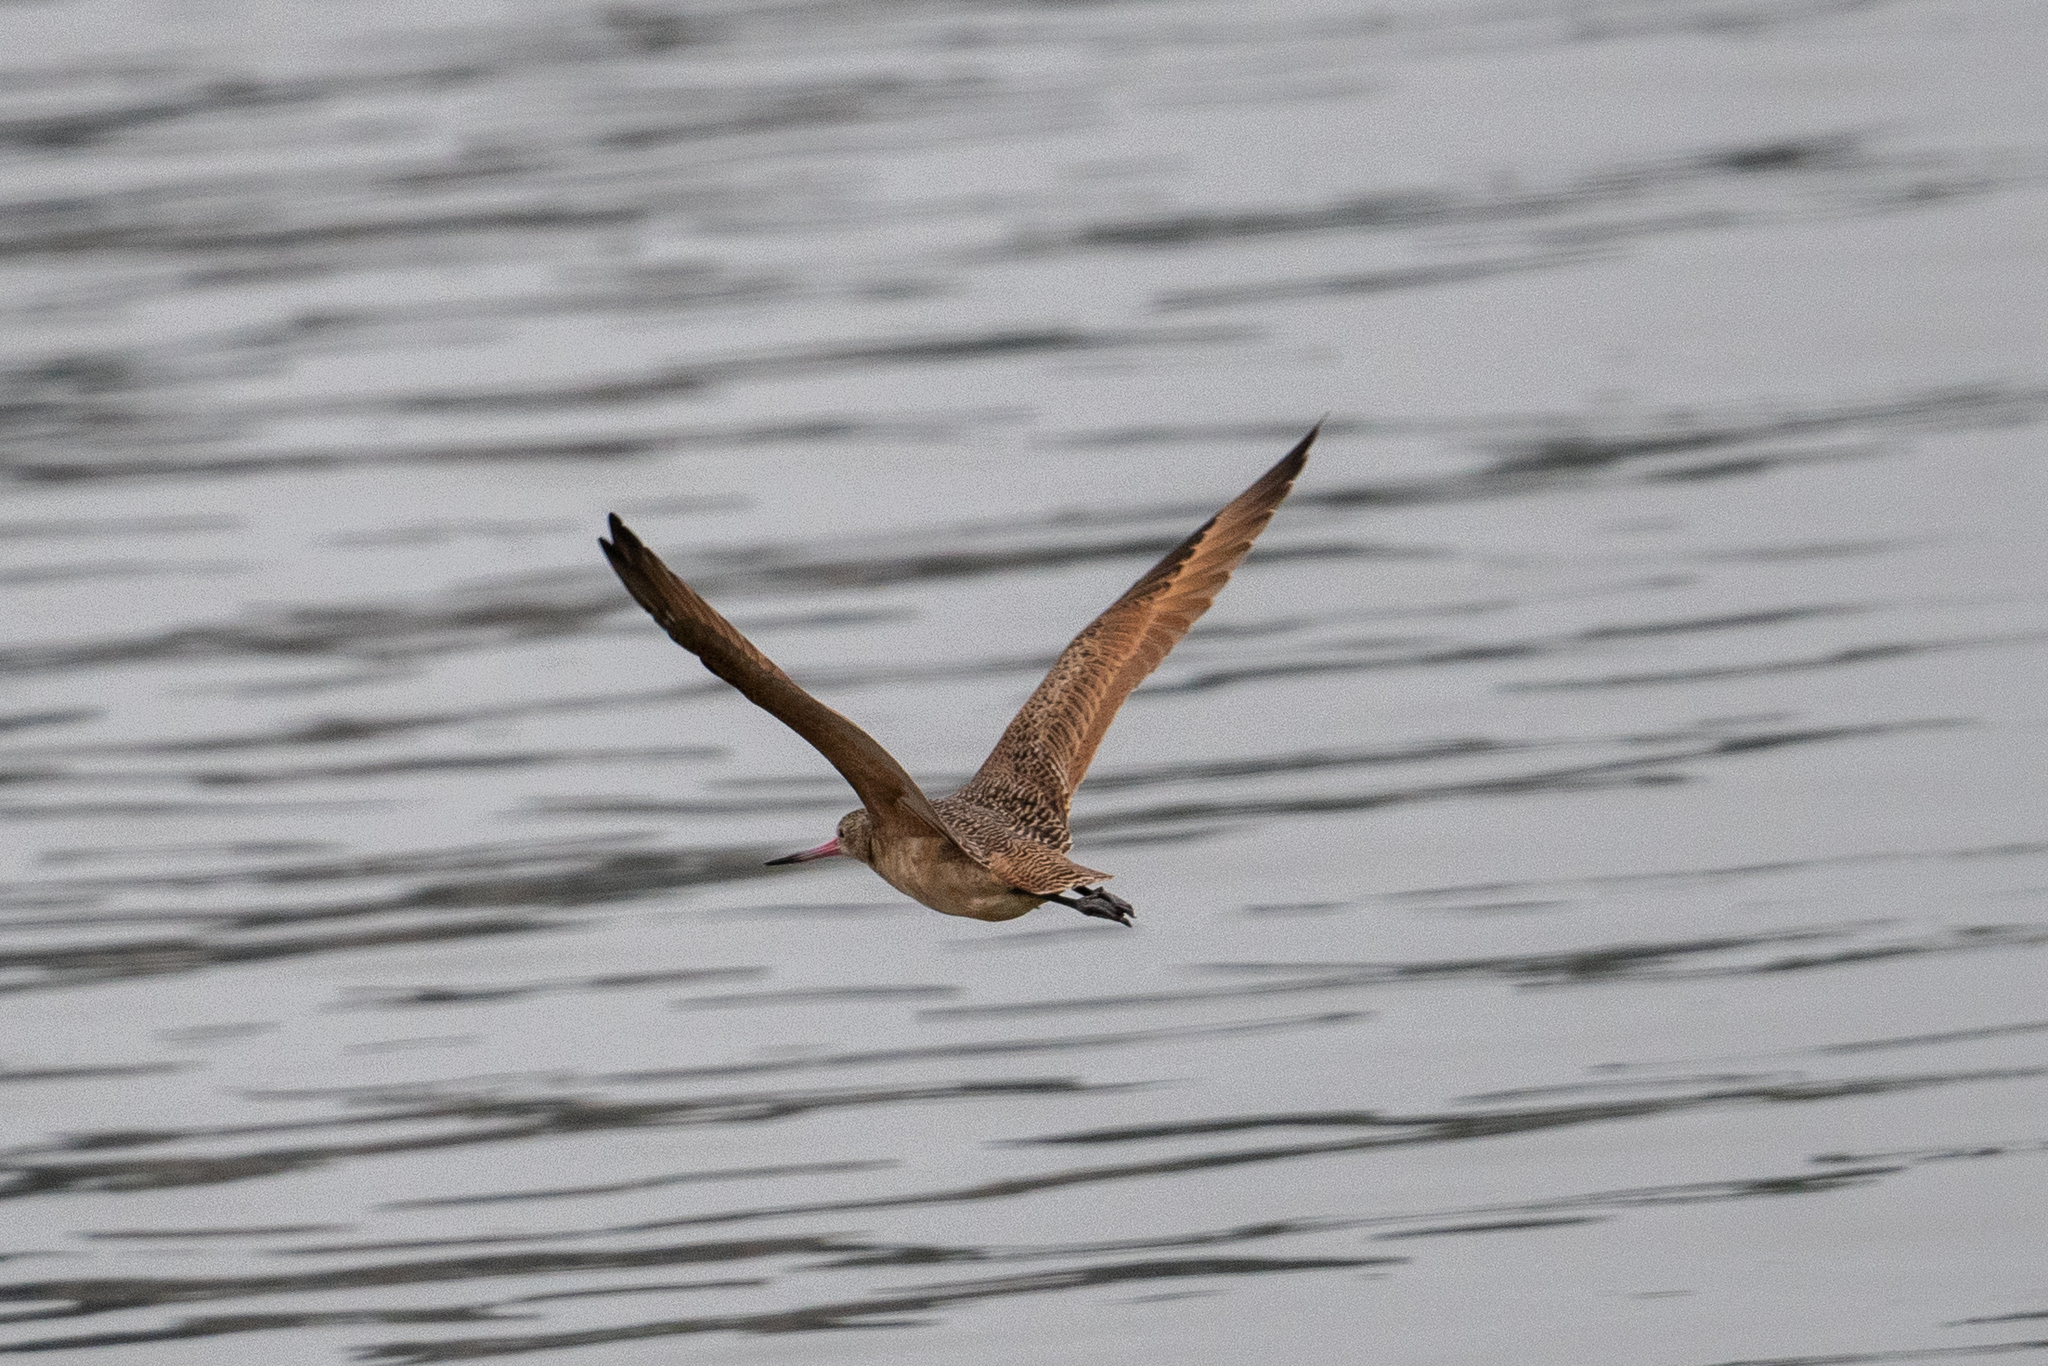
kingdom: Animalia
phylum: Chordata
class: Aves
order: Charadriiformes
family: Scolopacidae
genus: Limosa
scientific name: Limosa fedoa
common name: Marbled godwit
